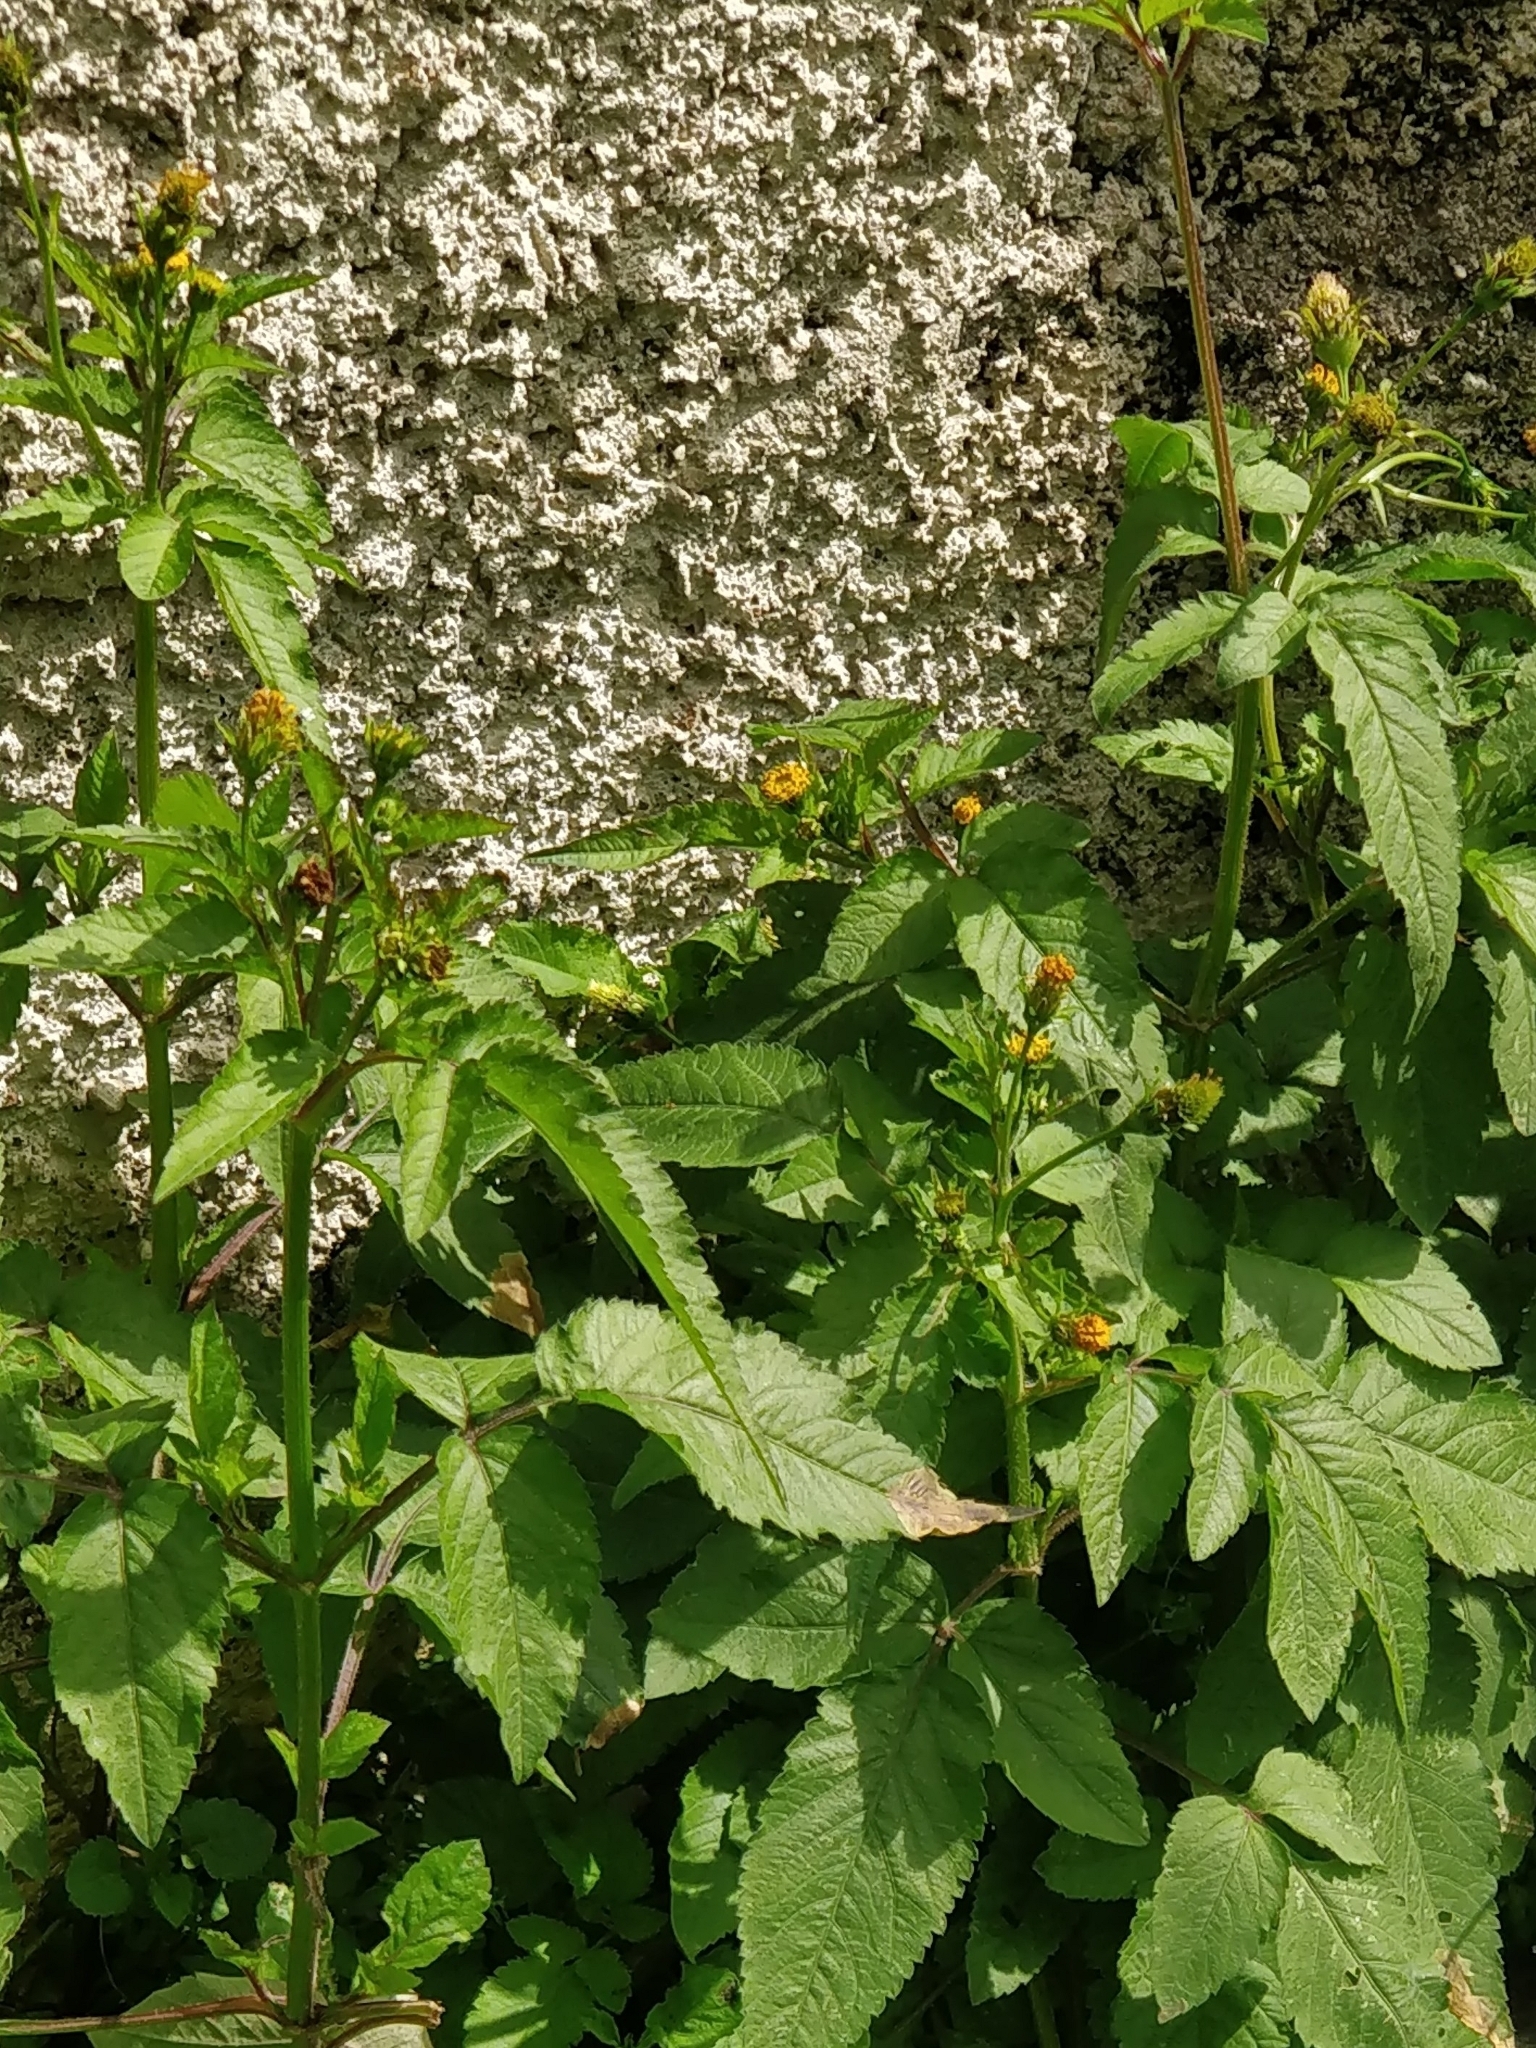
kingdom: Plantae
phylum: Tracheophyta
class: Magnoliopsida
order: Asterales
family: Asteraceae
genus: Bidens
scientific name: Bidens pilosa
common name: Black-jack
